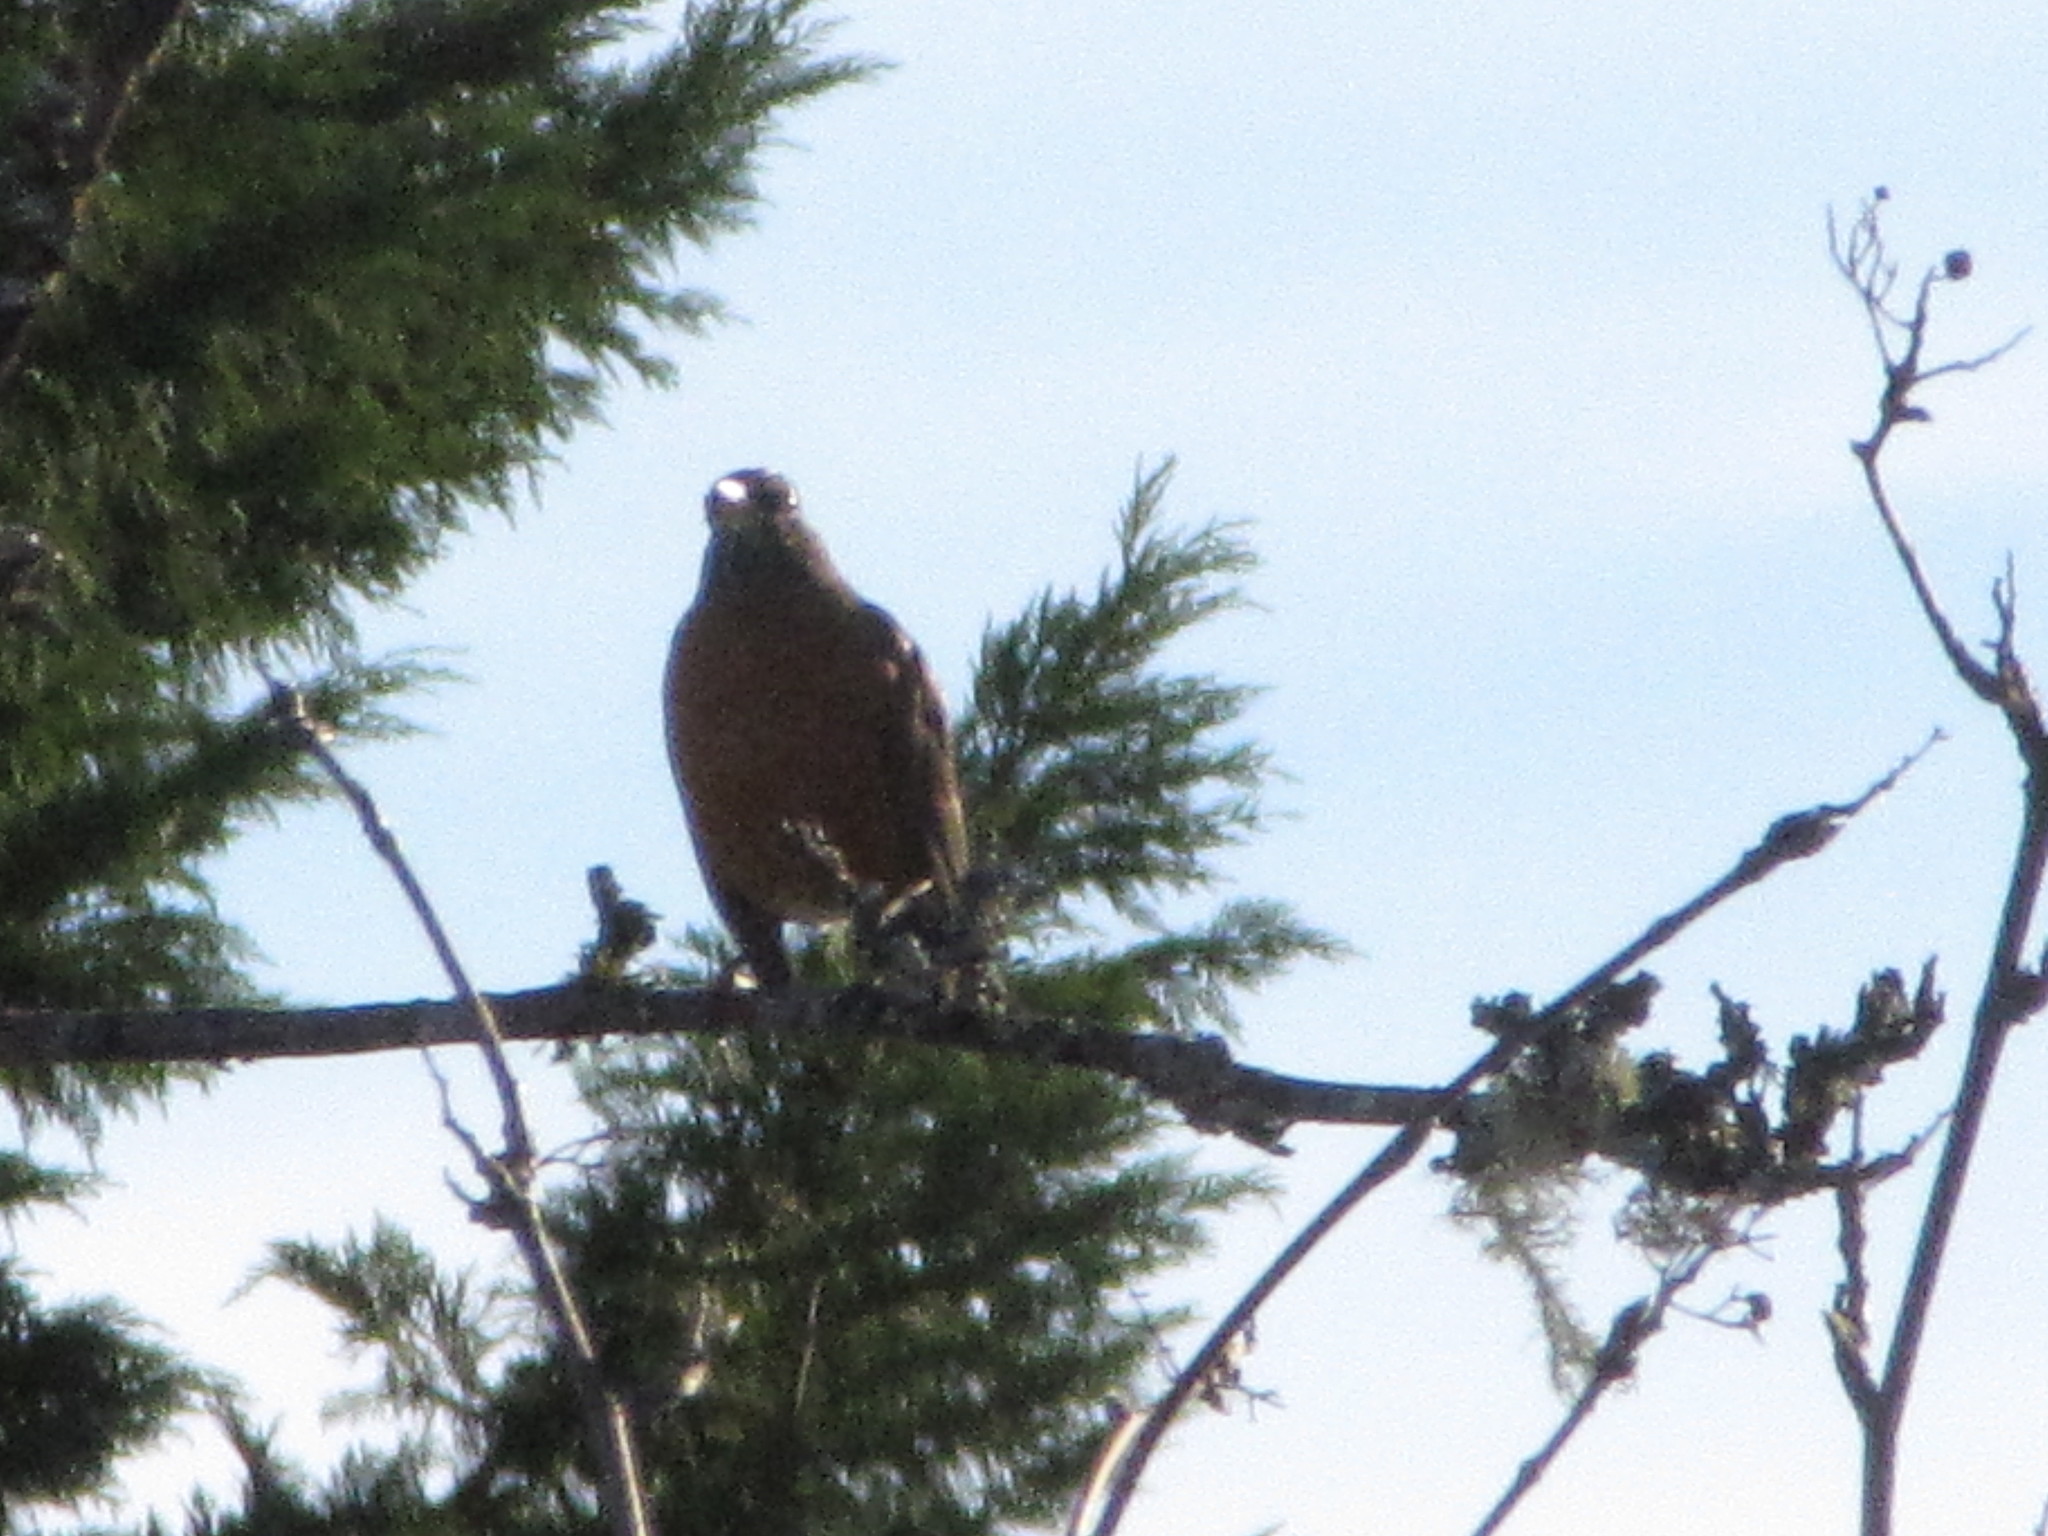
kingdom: Animalia
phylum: Chordata
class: Aves
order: Passeriformes
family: Turdidae
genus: Turdus
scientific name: Turdus migratorius
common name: American robin
